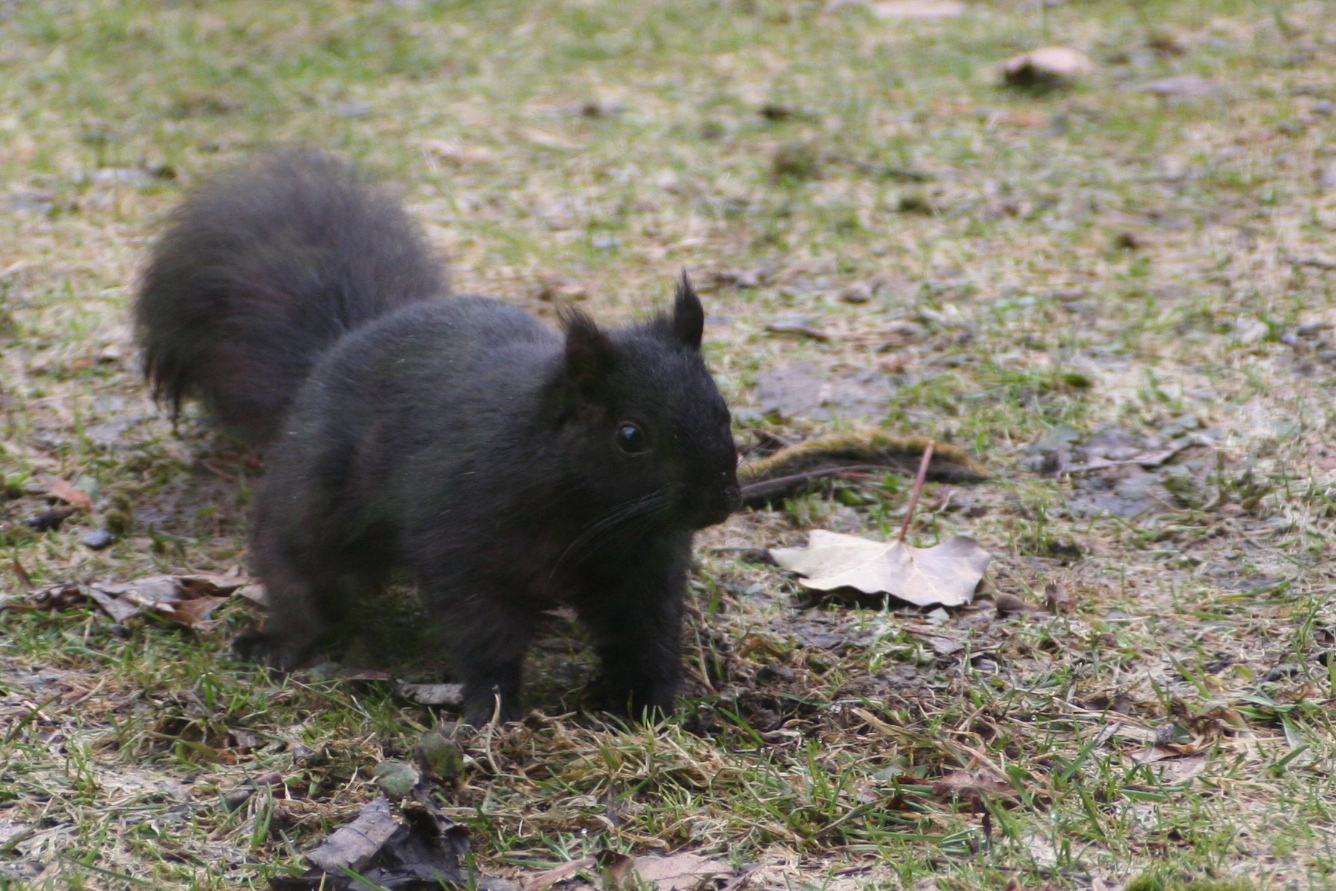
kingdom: Animalia
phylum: Chordata
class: Mammalia
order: Rodentia
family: Sciuridae
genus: Sciurus
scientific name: Sciurus carolinensis
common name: Eastern gray squirrel
